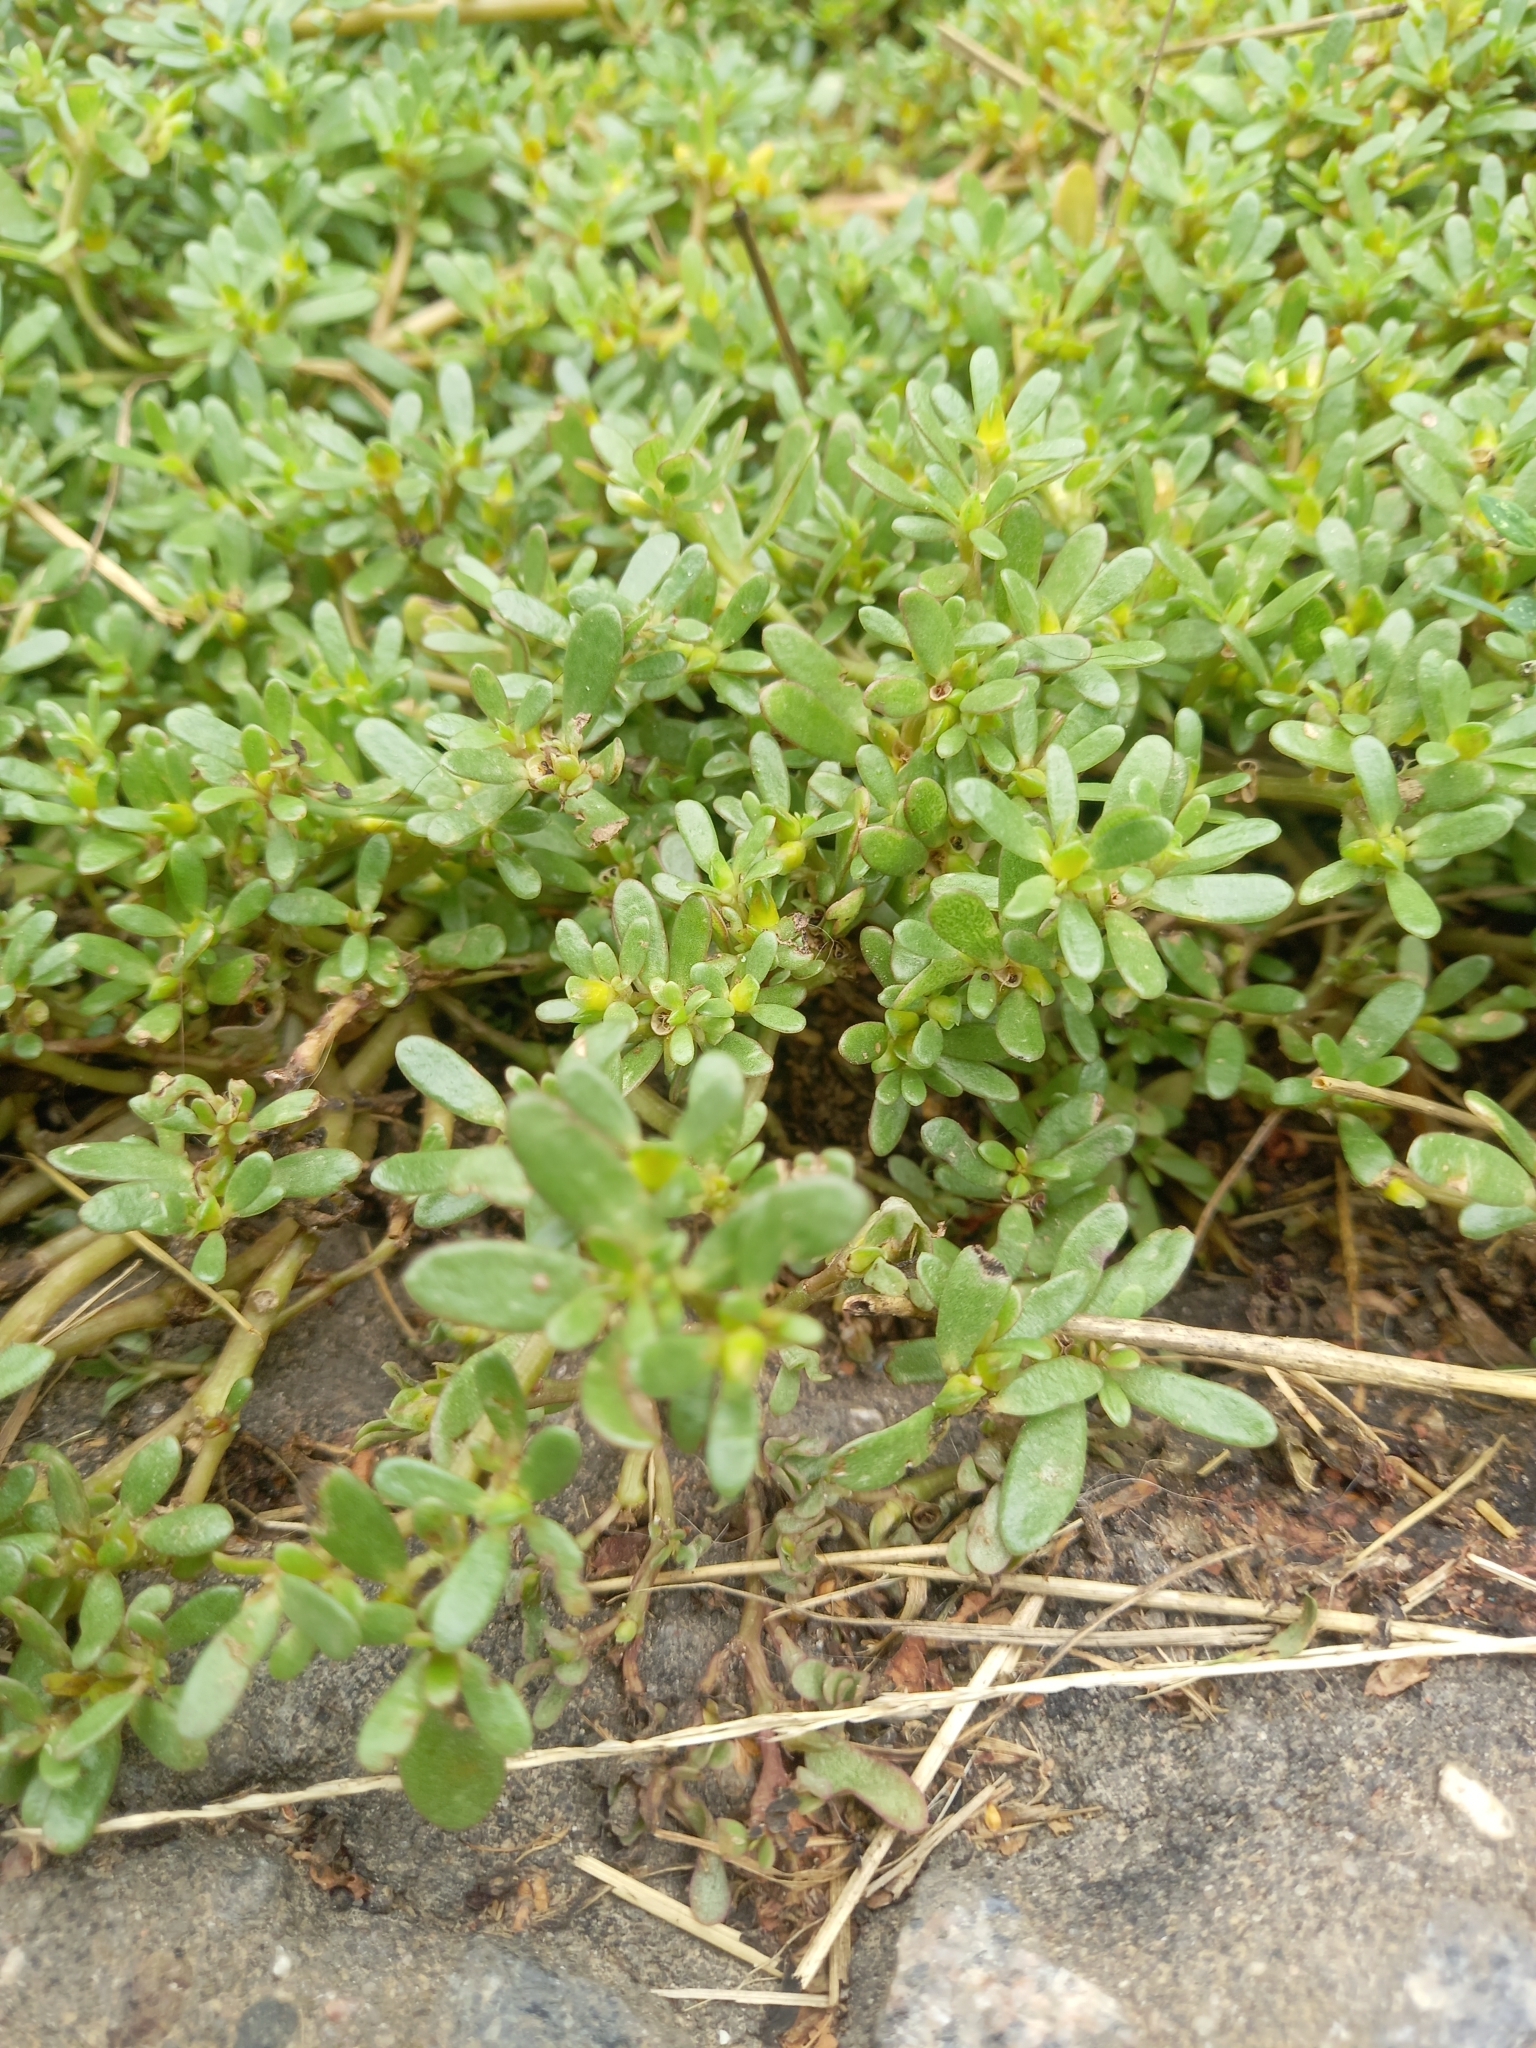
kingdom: Plantae
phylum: Tracheophyta
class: Magnoliopsida
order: Caryophyllales
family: Portulacaceae
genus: Portulaca
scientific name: Portulaca oleracea
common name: Common purslane
